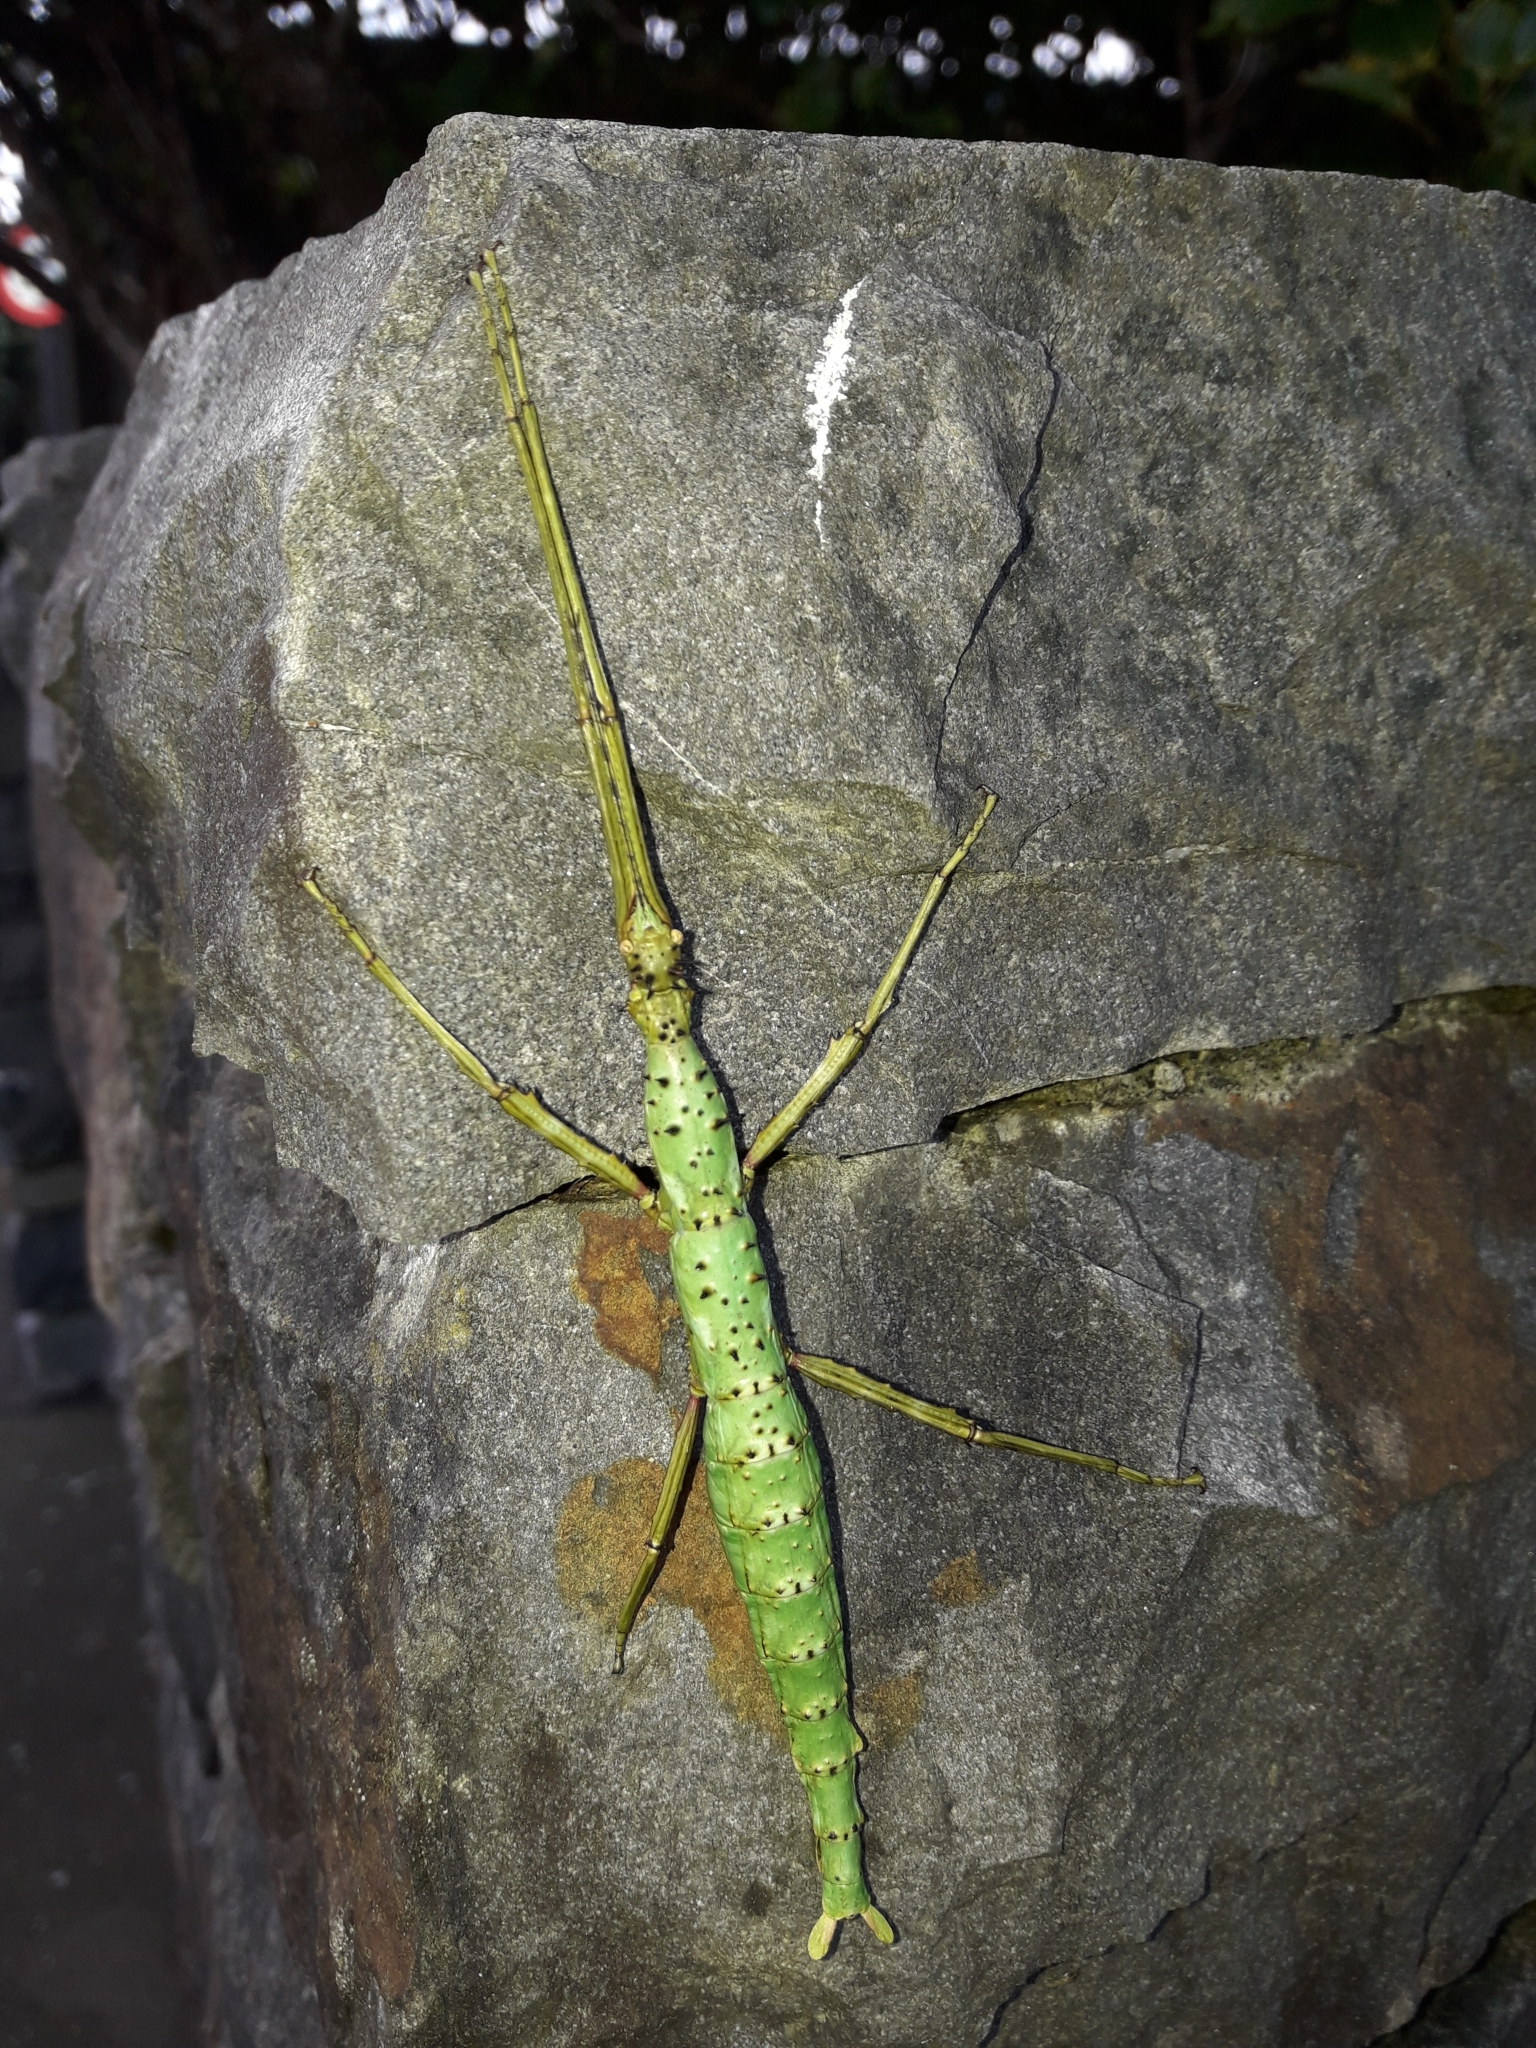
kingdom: Animalia
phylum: Arthropoda
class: Insecta
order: Phasmida
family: Phasmatidae
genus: Acanthoxyla
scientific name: Acanthoxyla prasina
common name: Black-spined stick insect
